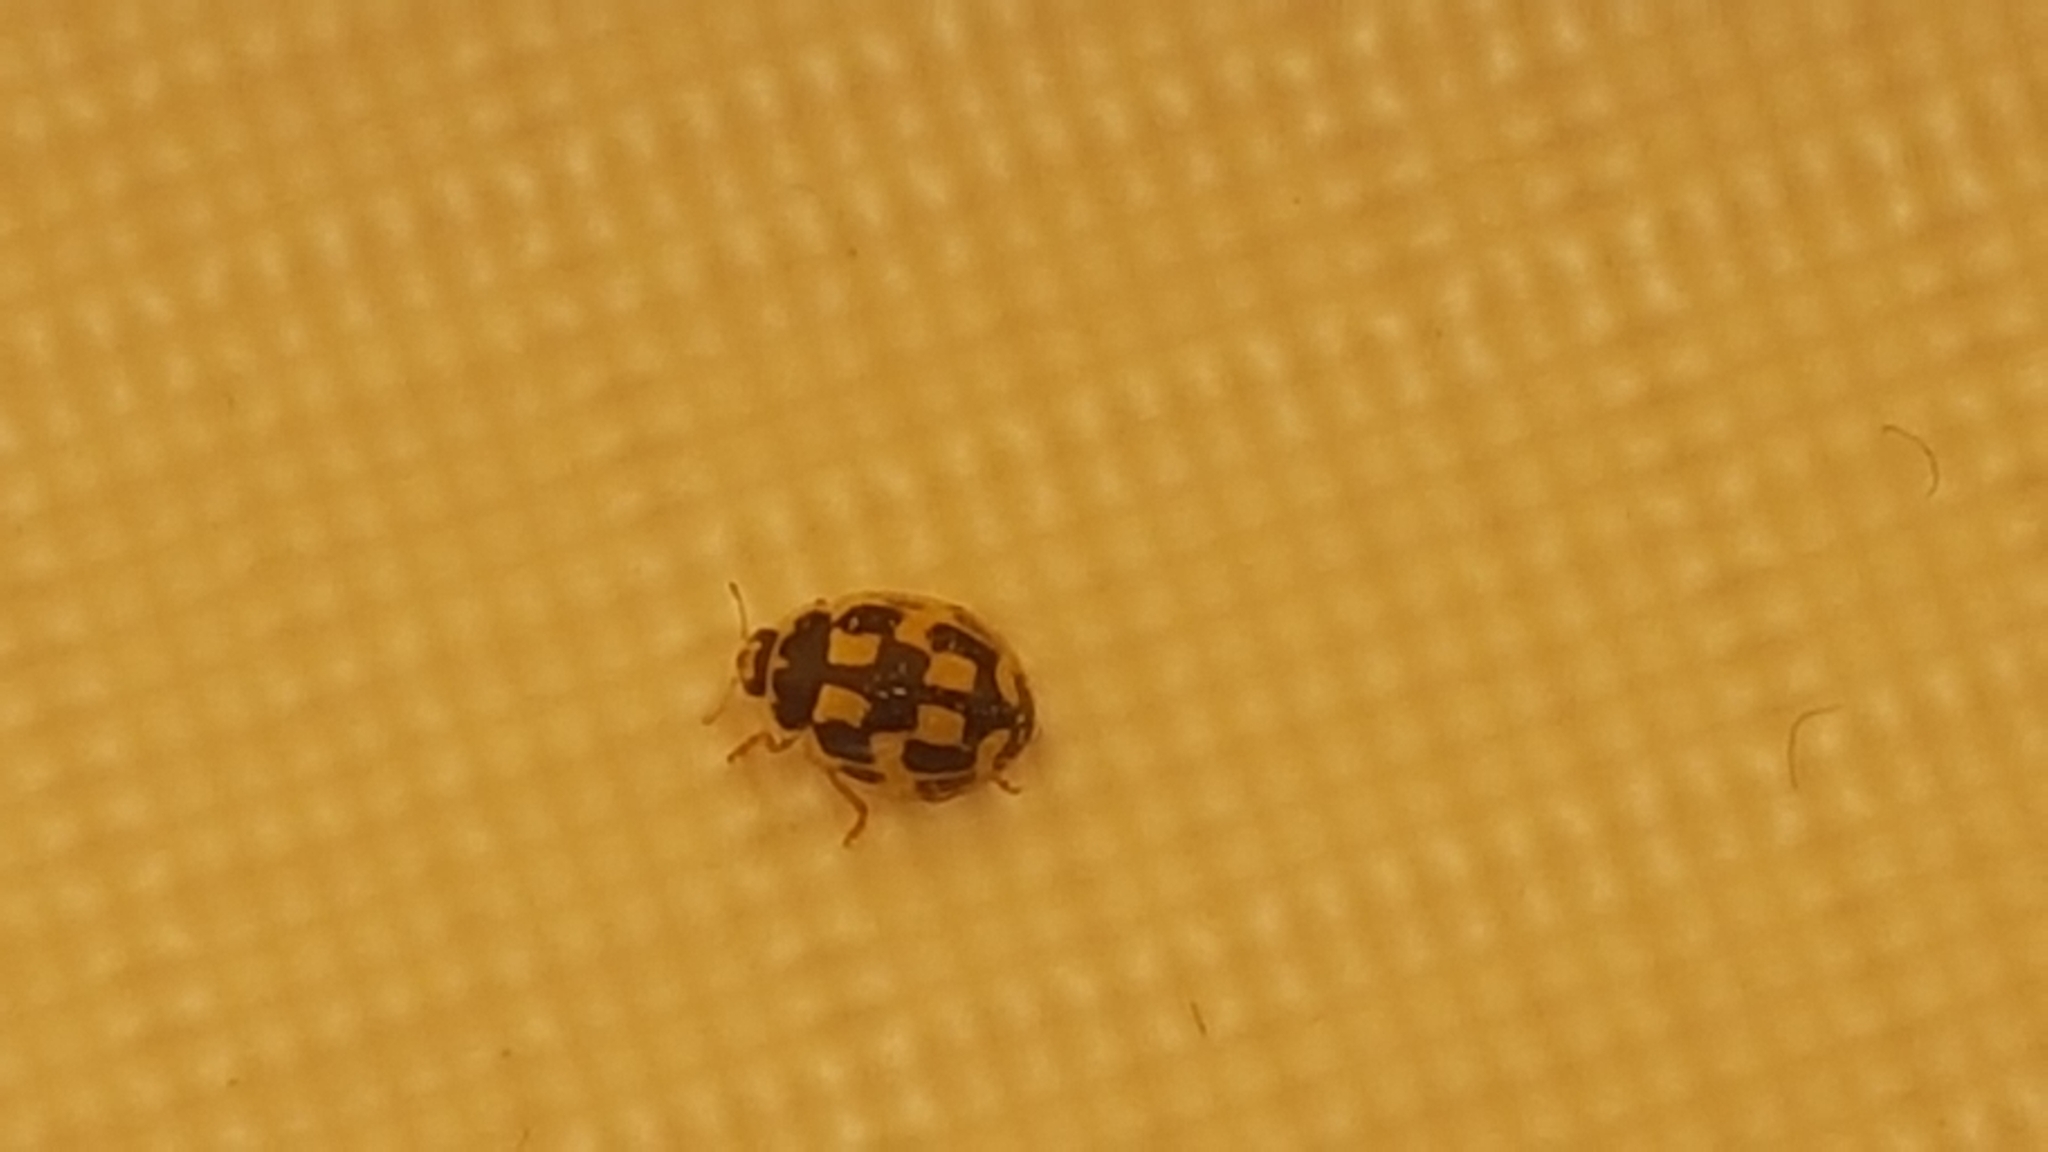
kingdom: Animalia
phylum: Arthropoda
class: Insecta
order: Coleoptera
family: Coccinellidae
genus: Propylaea
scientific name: Propylaea quatuordecimpunctata
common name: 14-spotted ladybird beetle
